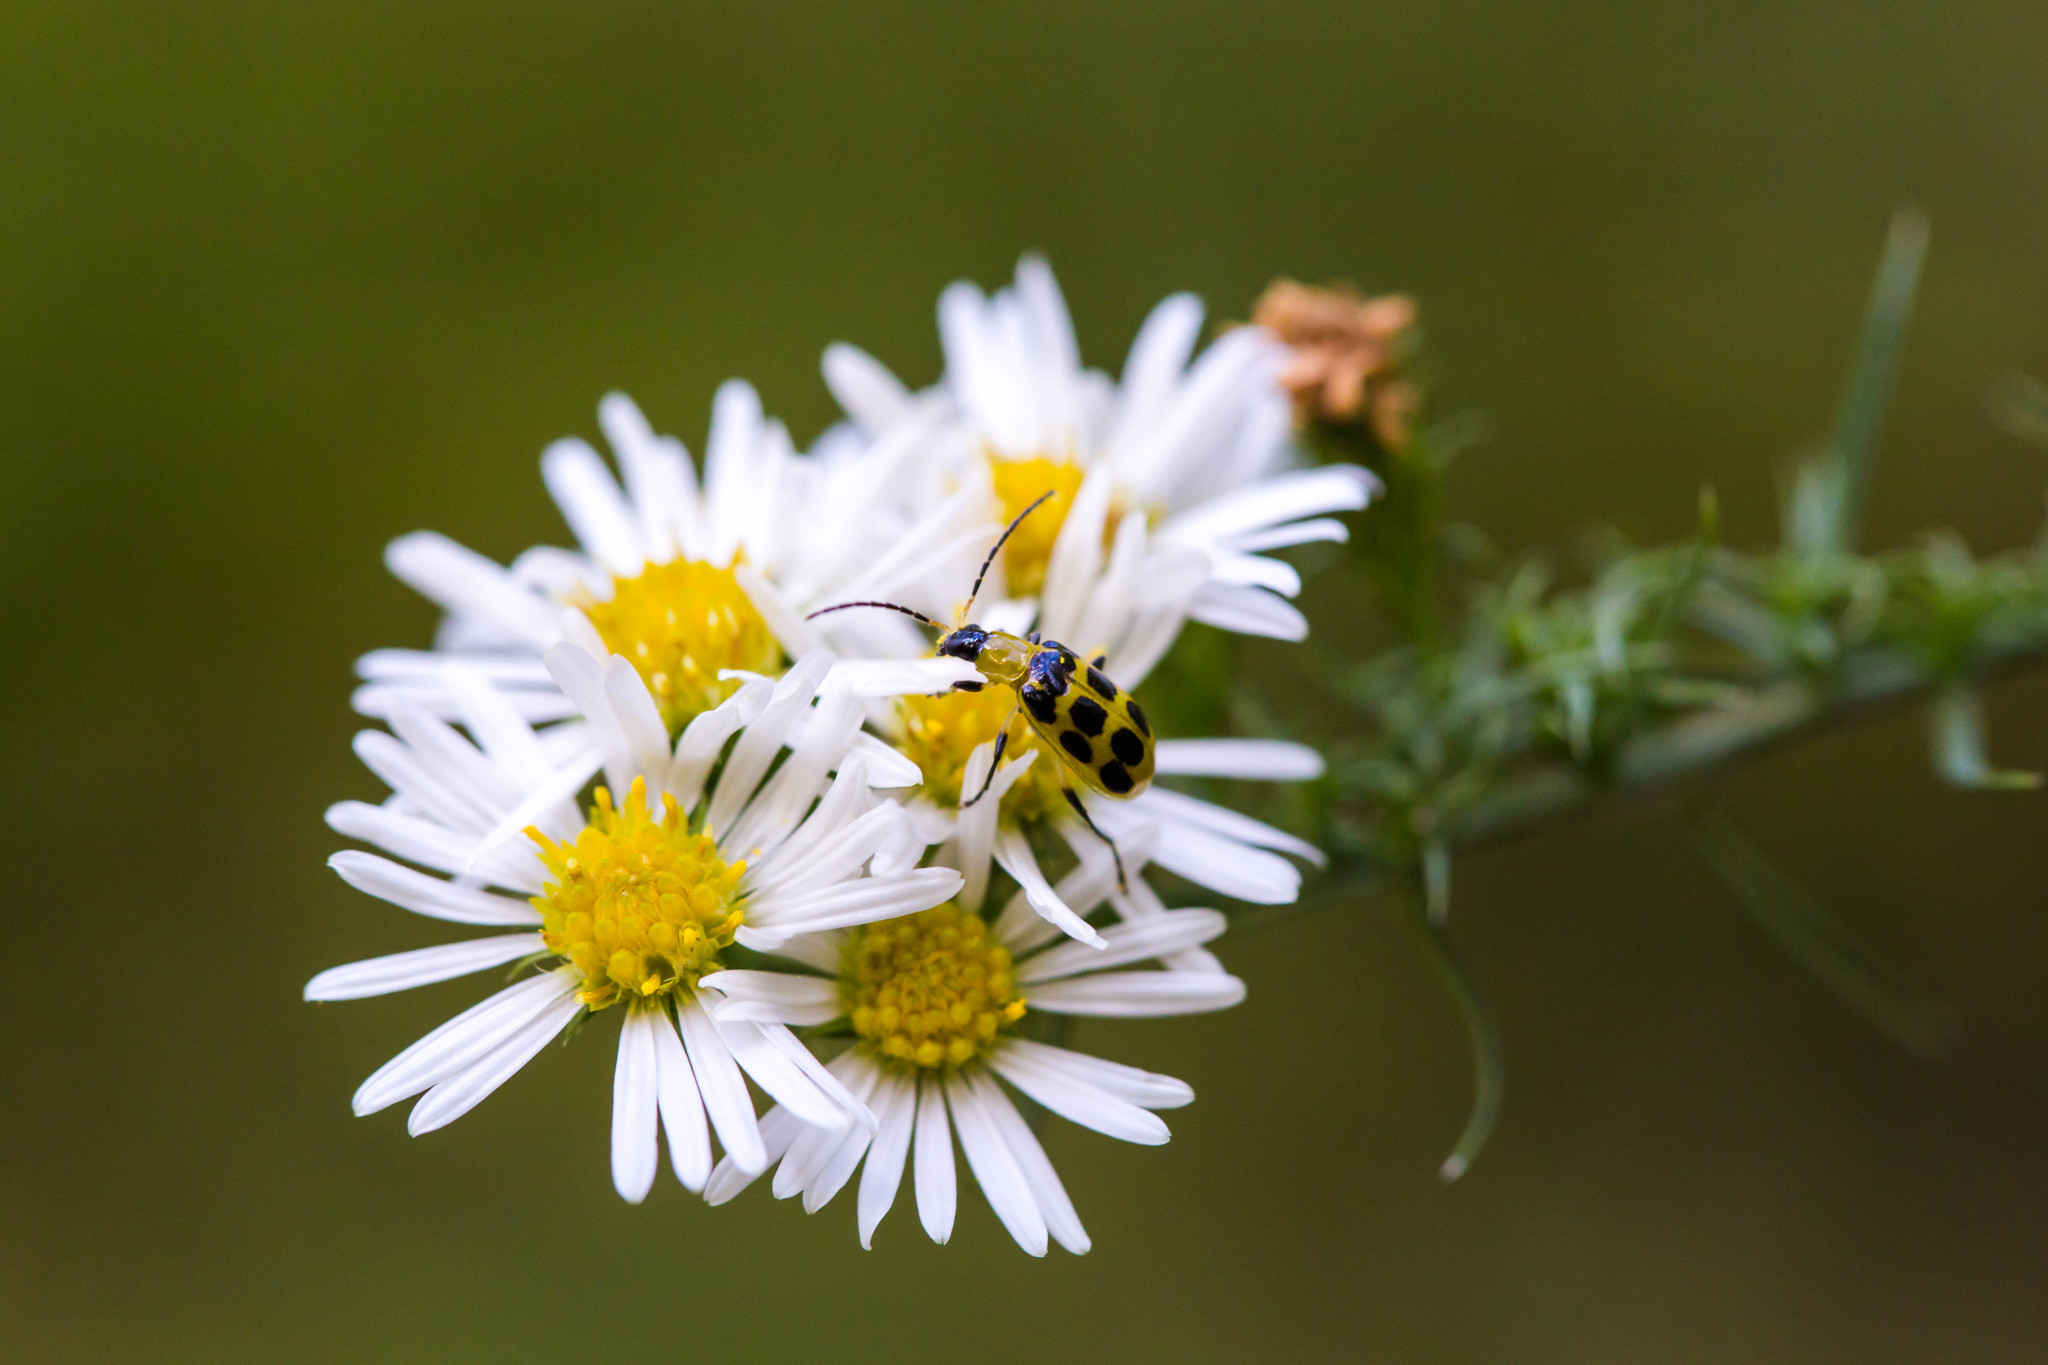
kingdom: Animalia
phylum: Arthropoda
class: Insecta
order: Coleoptera
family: Chrysomelidae
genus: Diabrotica
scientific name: Diabrotica undecimpunctata
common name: Spotted cucumber beetle
